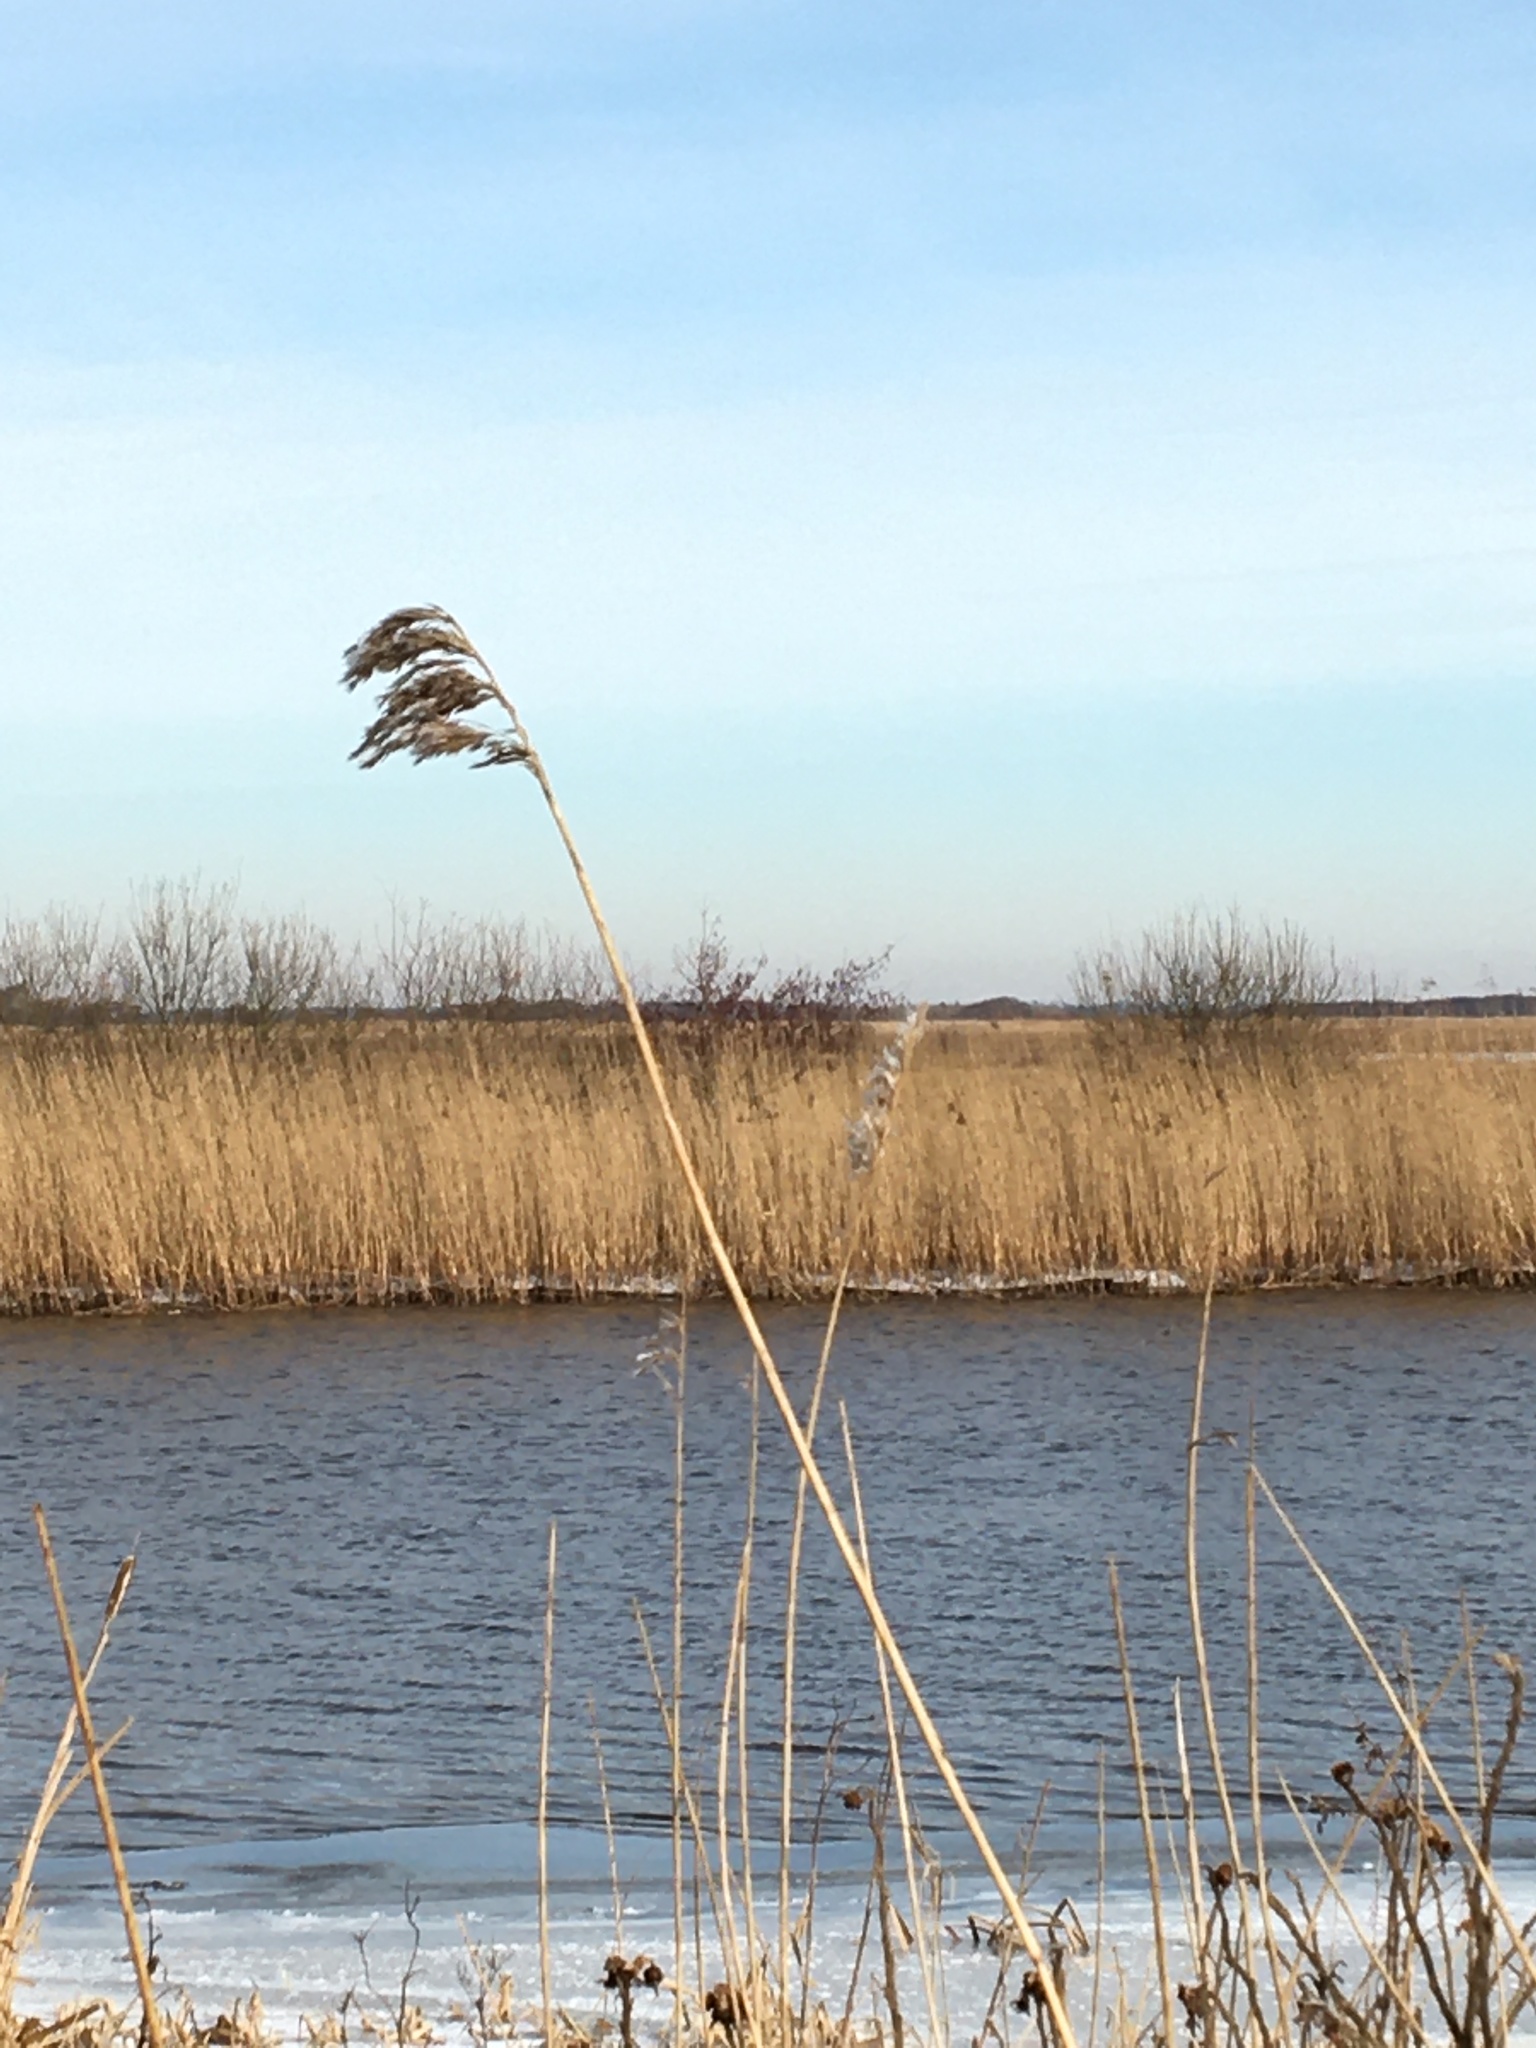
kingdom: Plantae
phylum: Tracheophyta
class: Liliopsida
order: Poales
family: Poaceae
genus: Phragmites
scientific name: Phragmites australis
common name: Common reed
